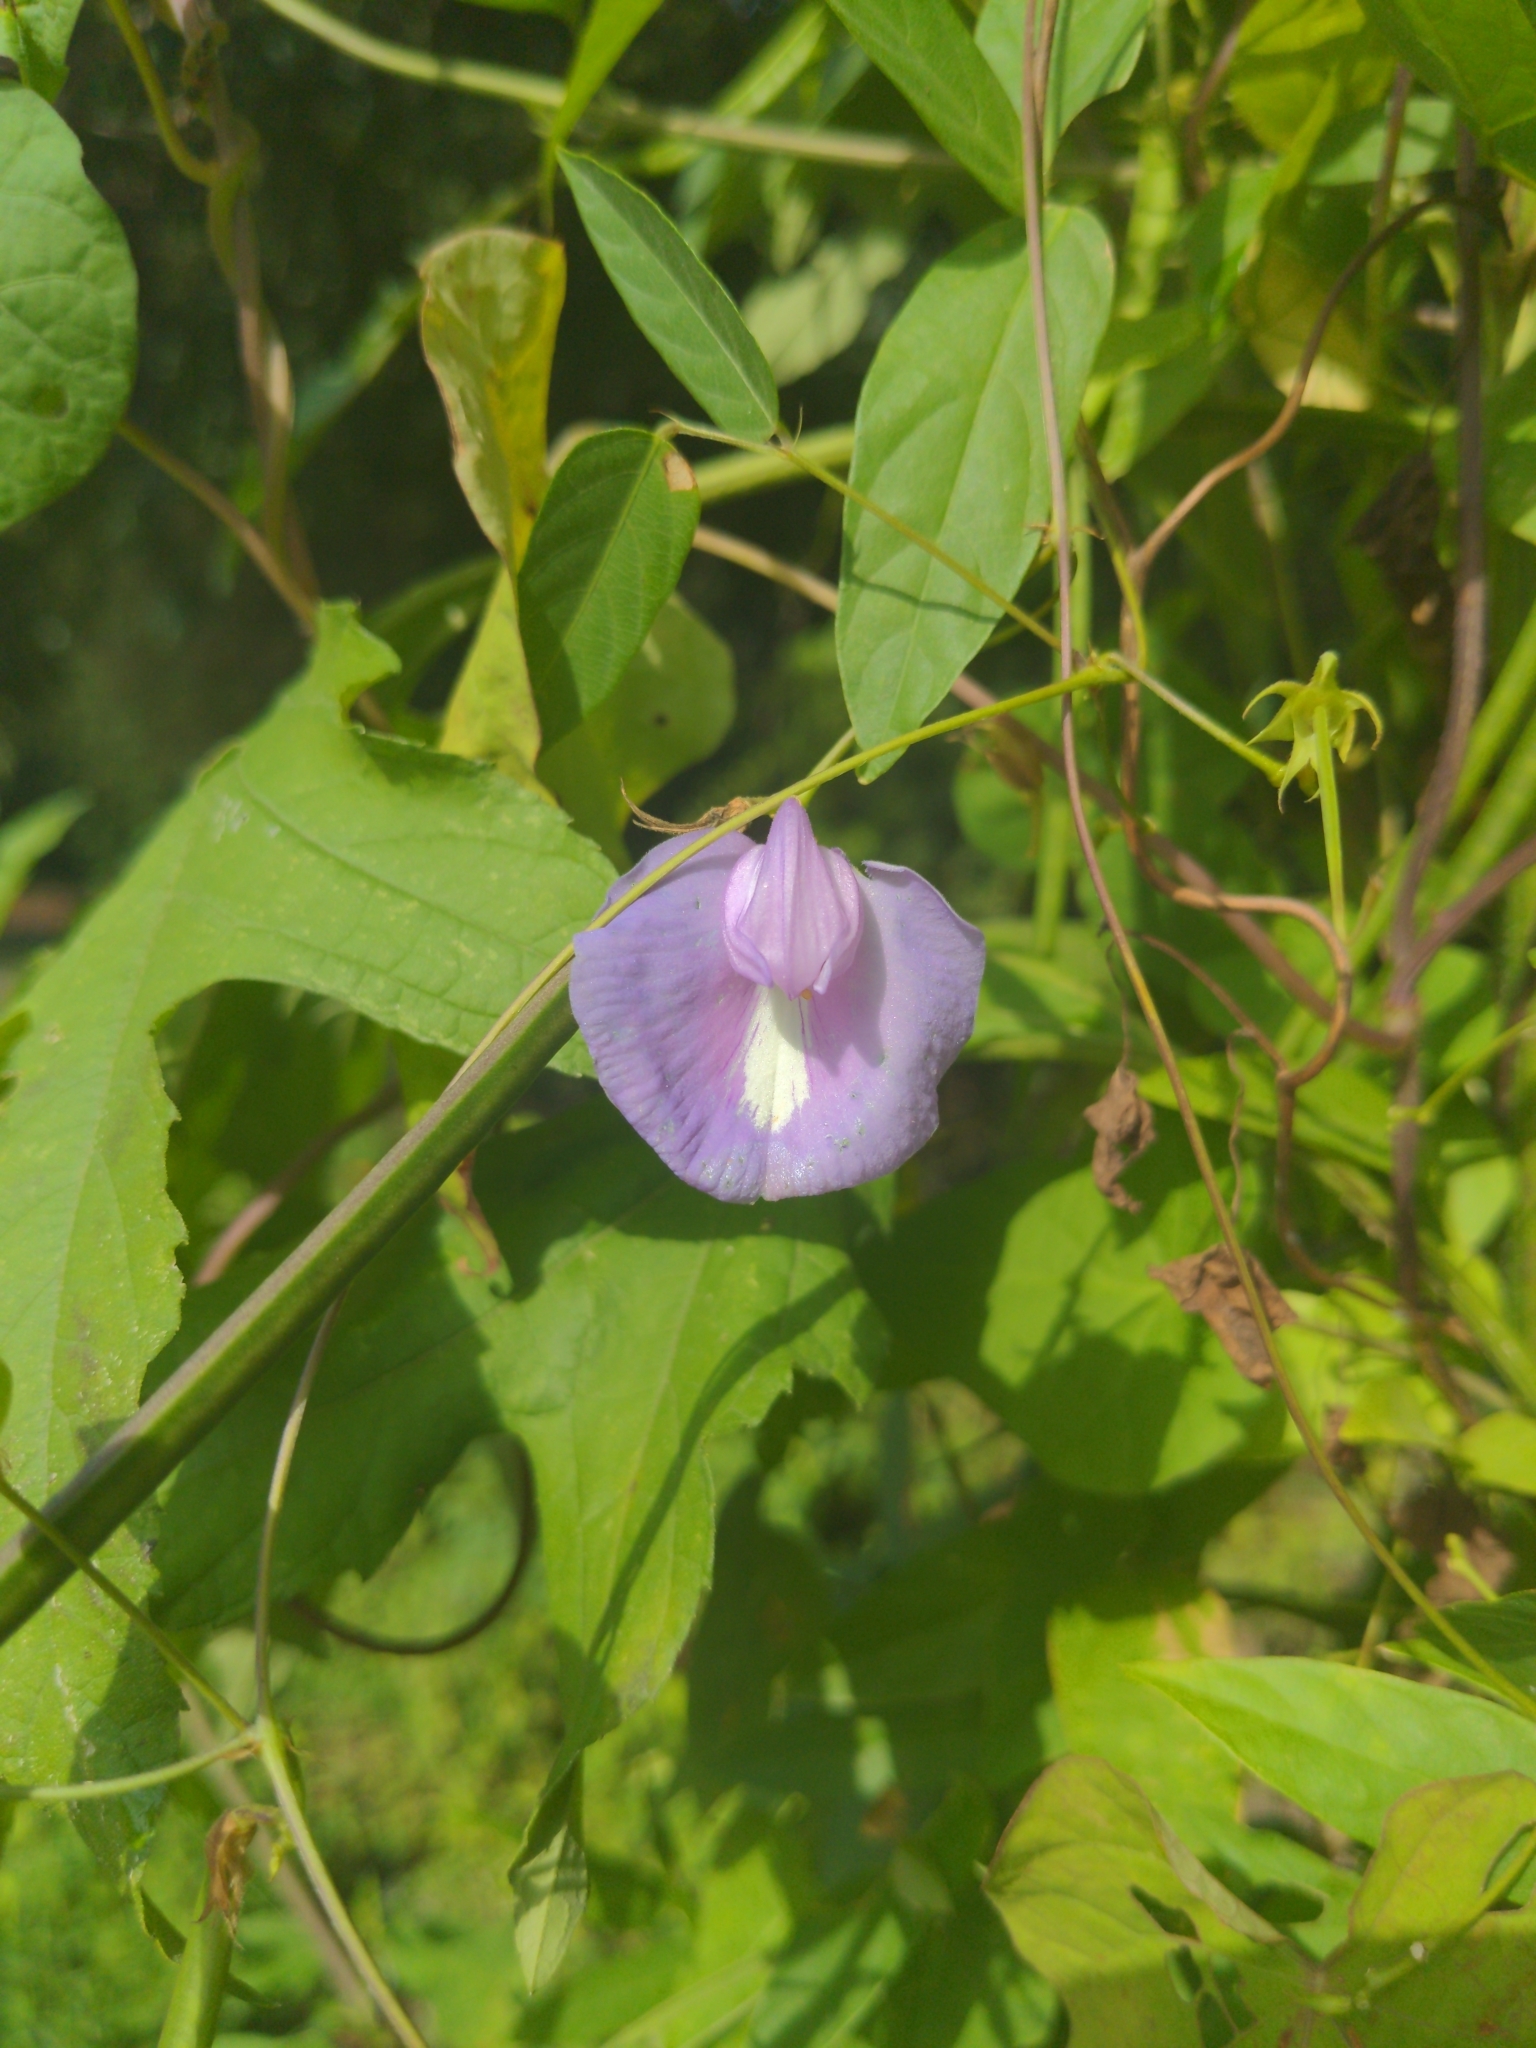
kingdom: Plantae
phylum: Tracheophyta
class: Magnoliopsida
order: Fabales
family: Fabaceae
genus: Centrosema
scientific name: Centrosema virginianum
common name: Butterfly-pea
